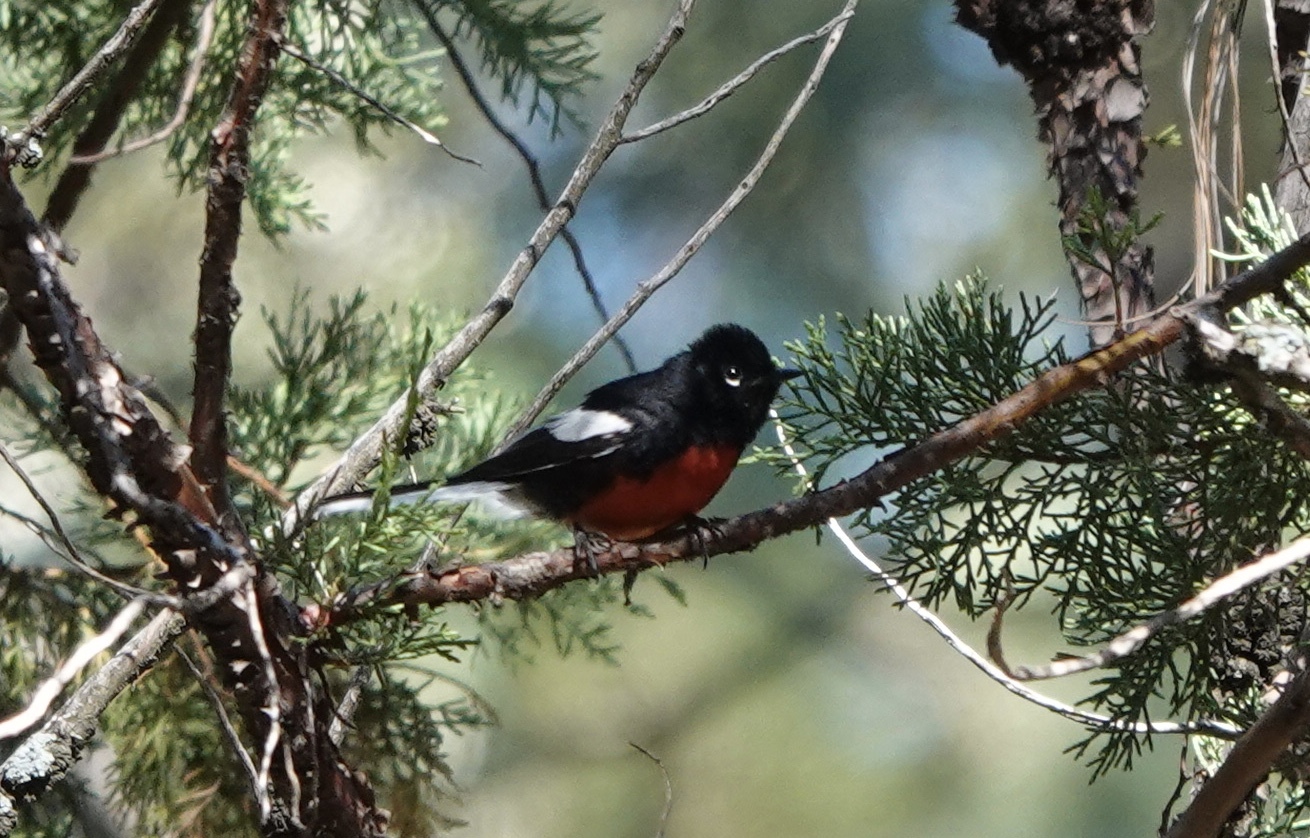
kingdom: Animalia
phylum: Chordata
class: Aves
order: Passeriformes
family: Parulidae
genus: Myioborus
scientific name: Myioborus pictus
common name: Painted whitestart
